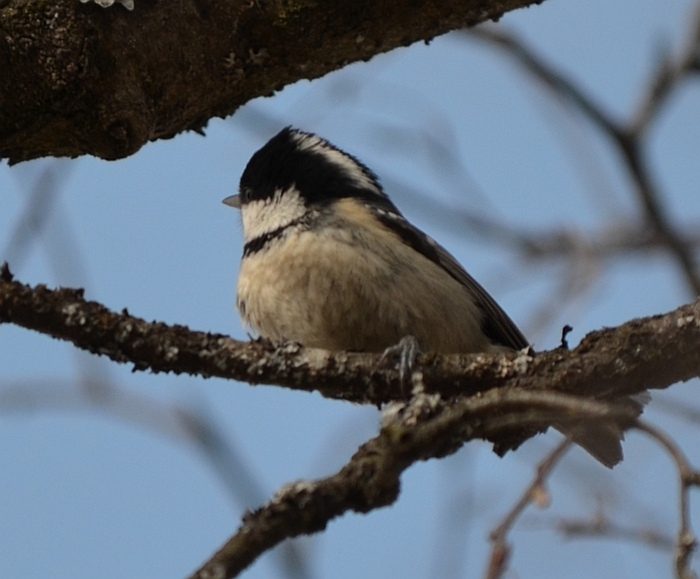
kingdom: Animalia
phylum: Chordata
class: Aves
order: Passeriformes
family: Paridae
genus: Periparus
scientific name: Periparus ater
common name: Coal tit
